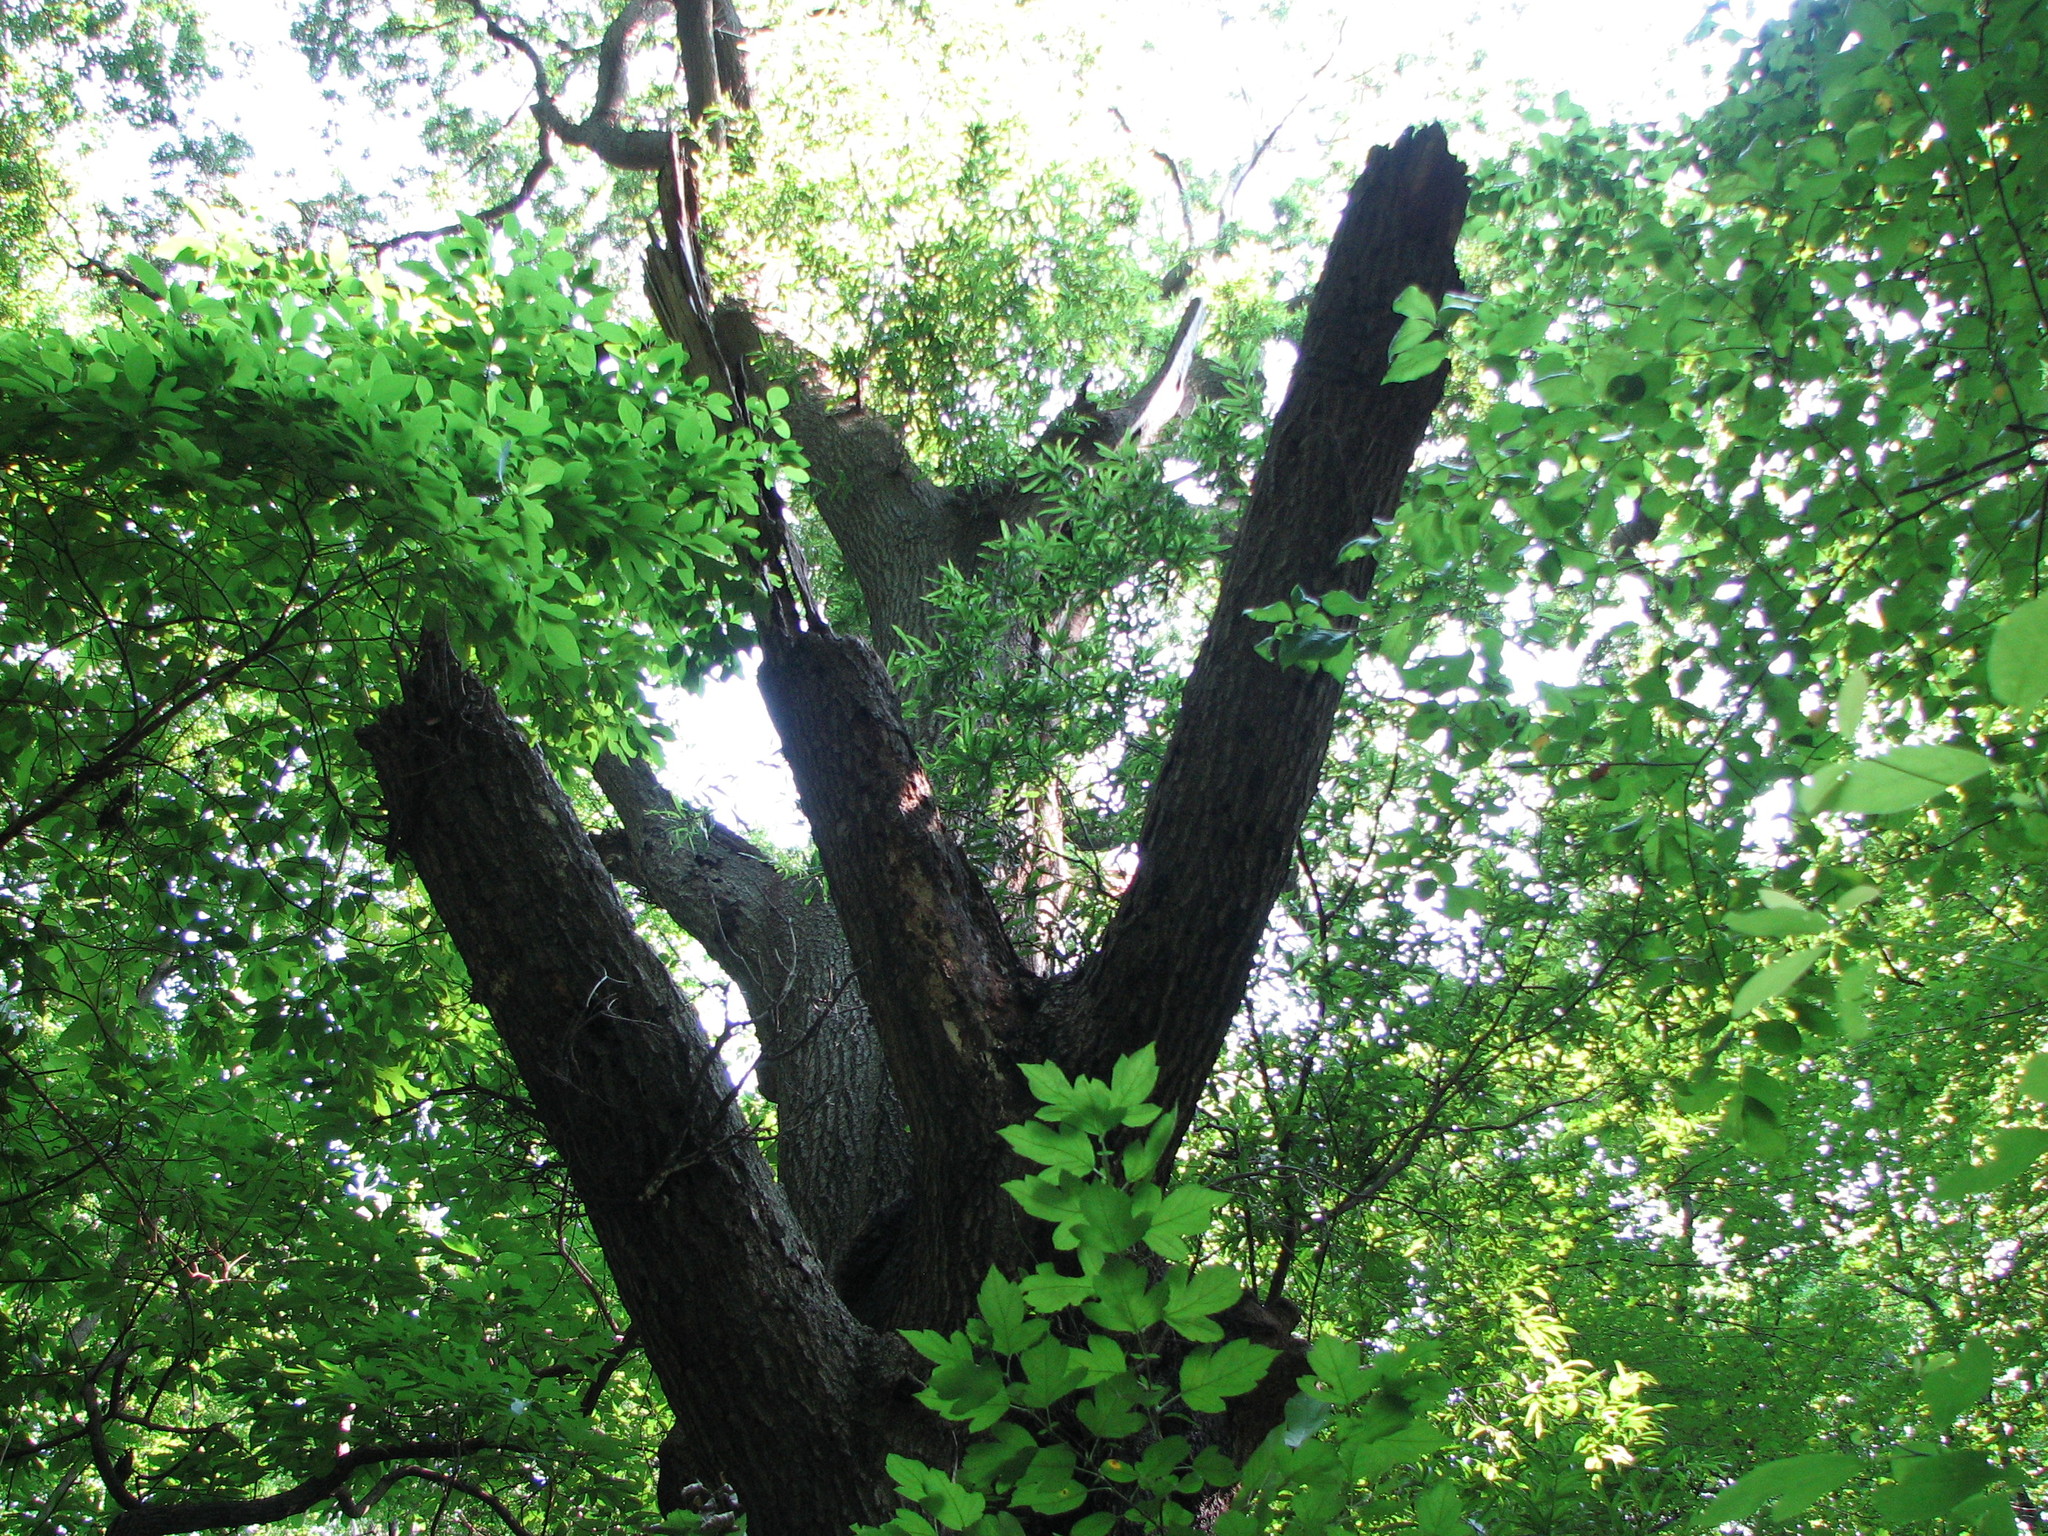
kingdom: Plantae
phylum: Tracheophyta
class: Magnoliopsida
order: Fagales
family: Fagaceae
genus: Quercus
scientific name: Quercus phellos
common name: Willow oak
